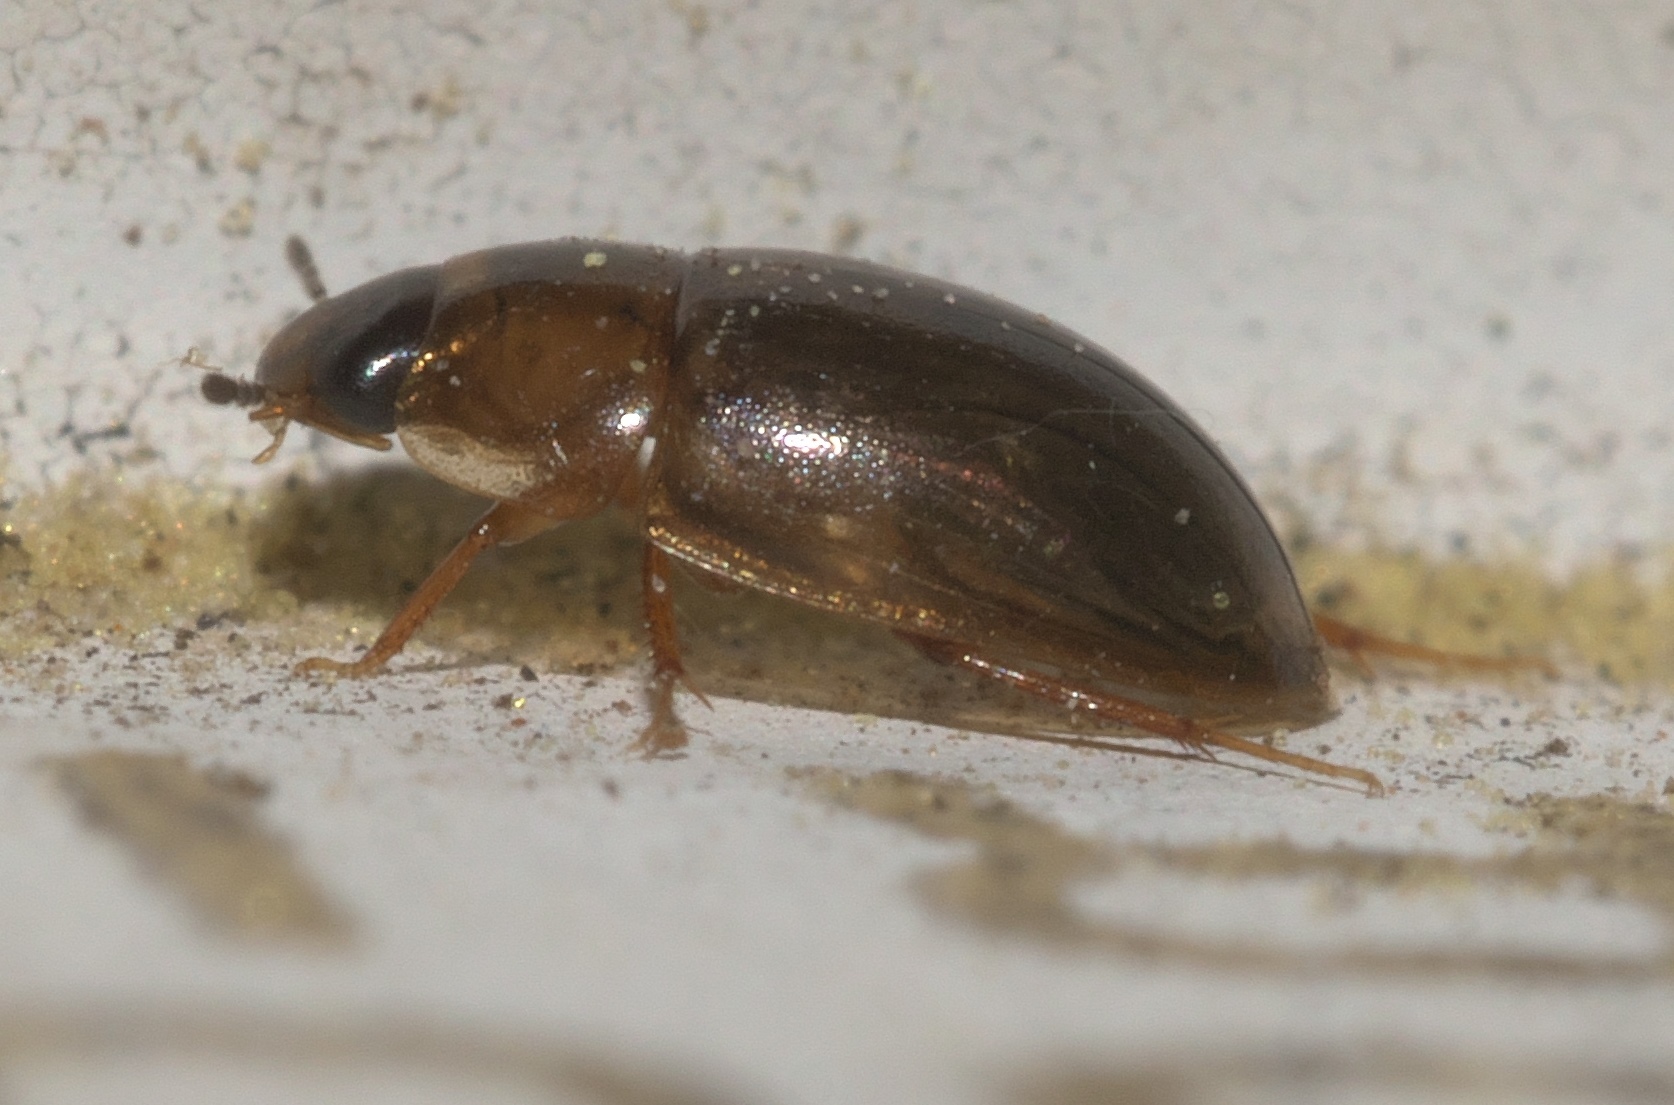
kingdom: Animalia
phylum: Arthropoda
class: Insecta
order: Coleoptera
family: Hydrophilidae
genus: Enochrus
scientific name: Enochrus
